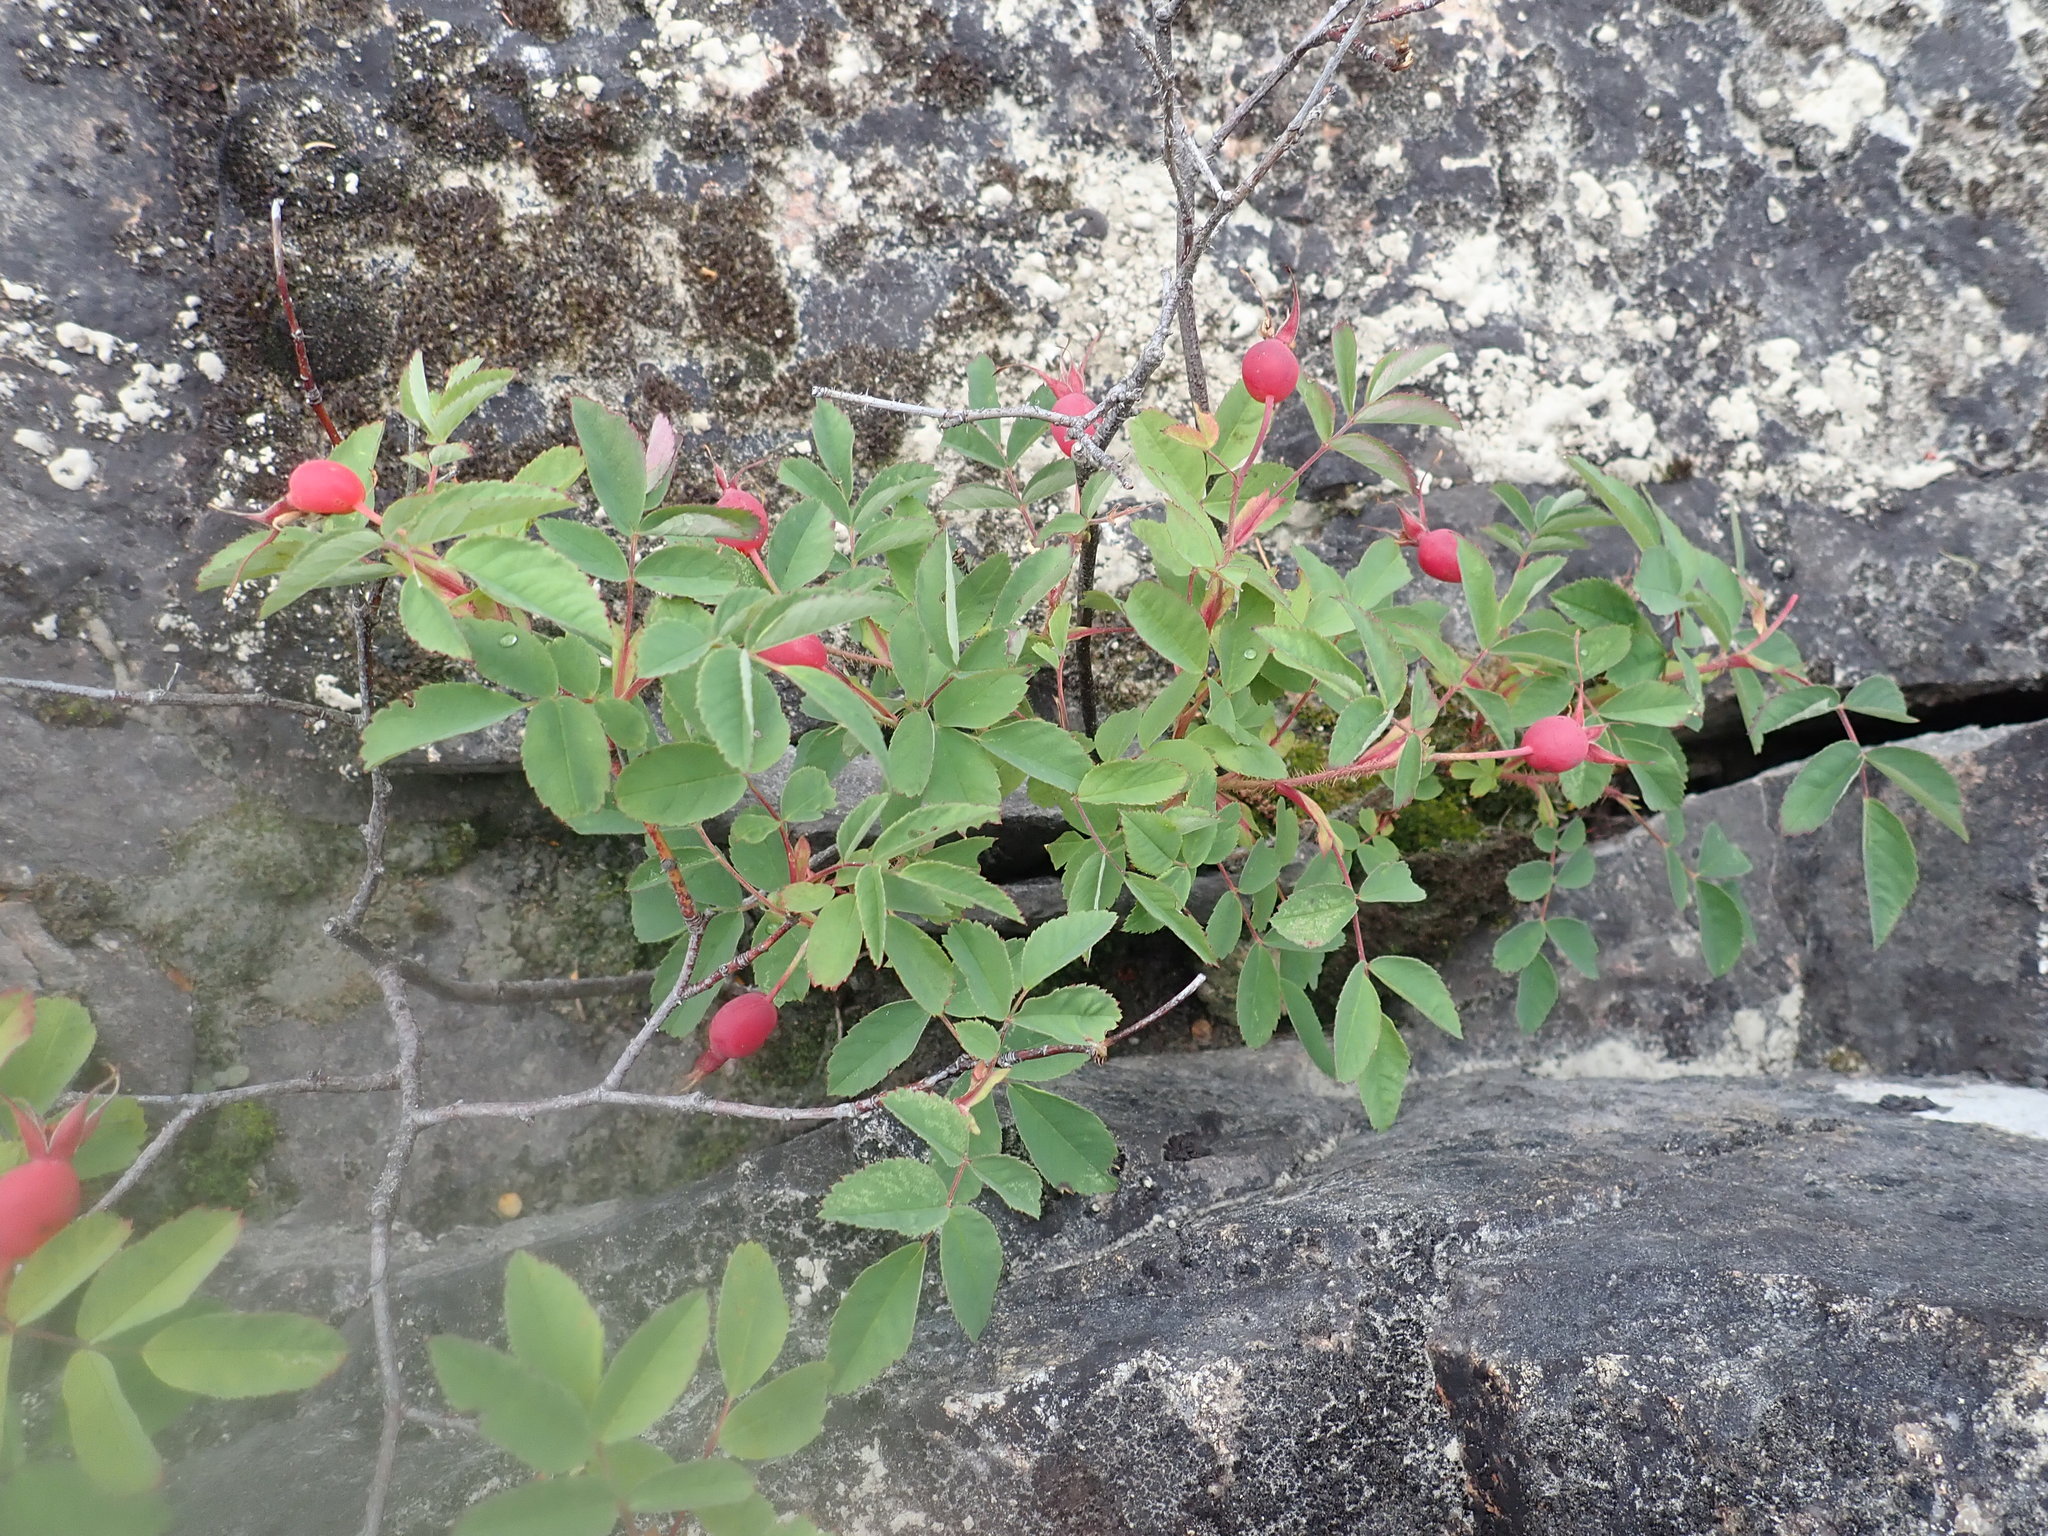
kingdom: Plantae
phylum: Tracheophyta
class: Magnoliopsida
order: Rosales
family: Rosaceae
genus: Rosa
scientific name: Rosa acicularis
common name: Prickly rose
